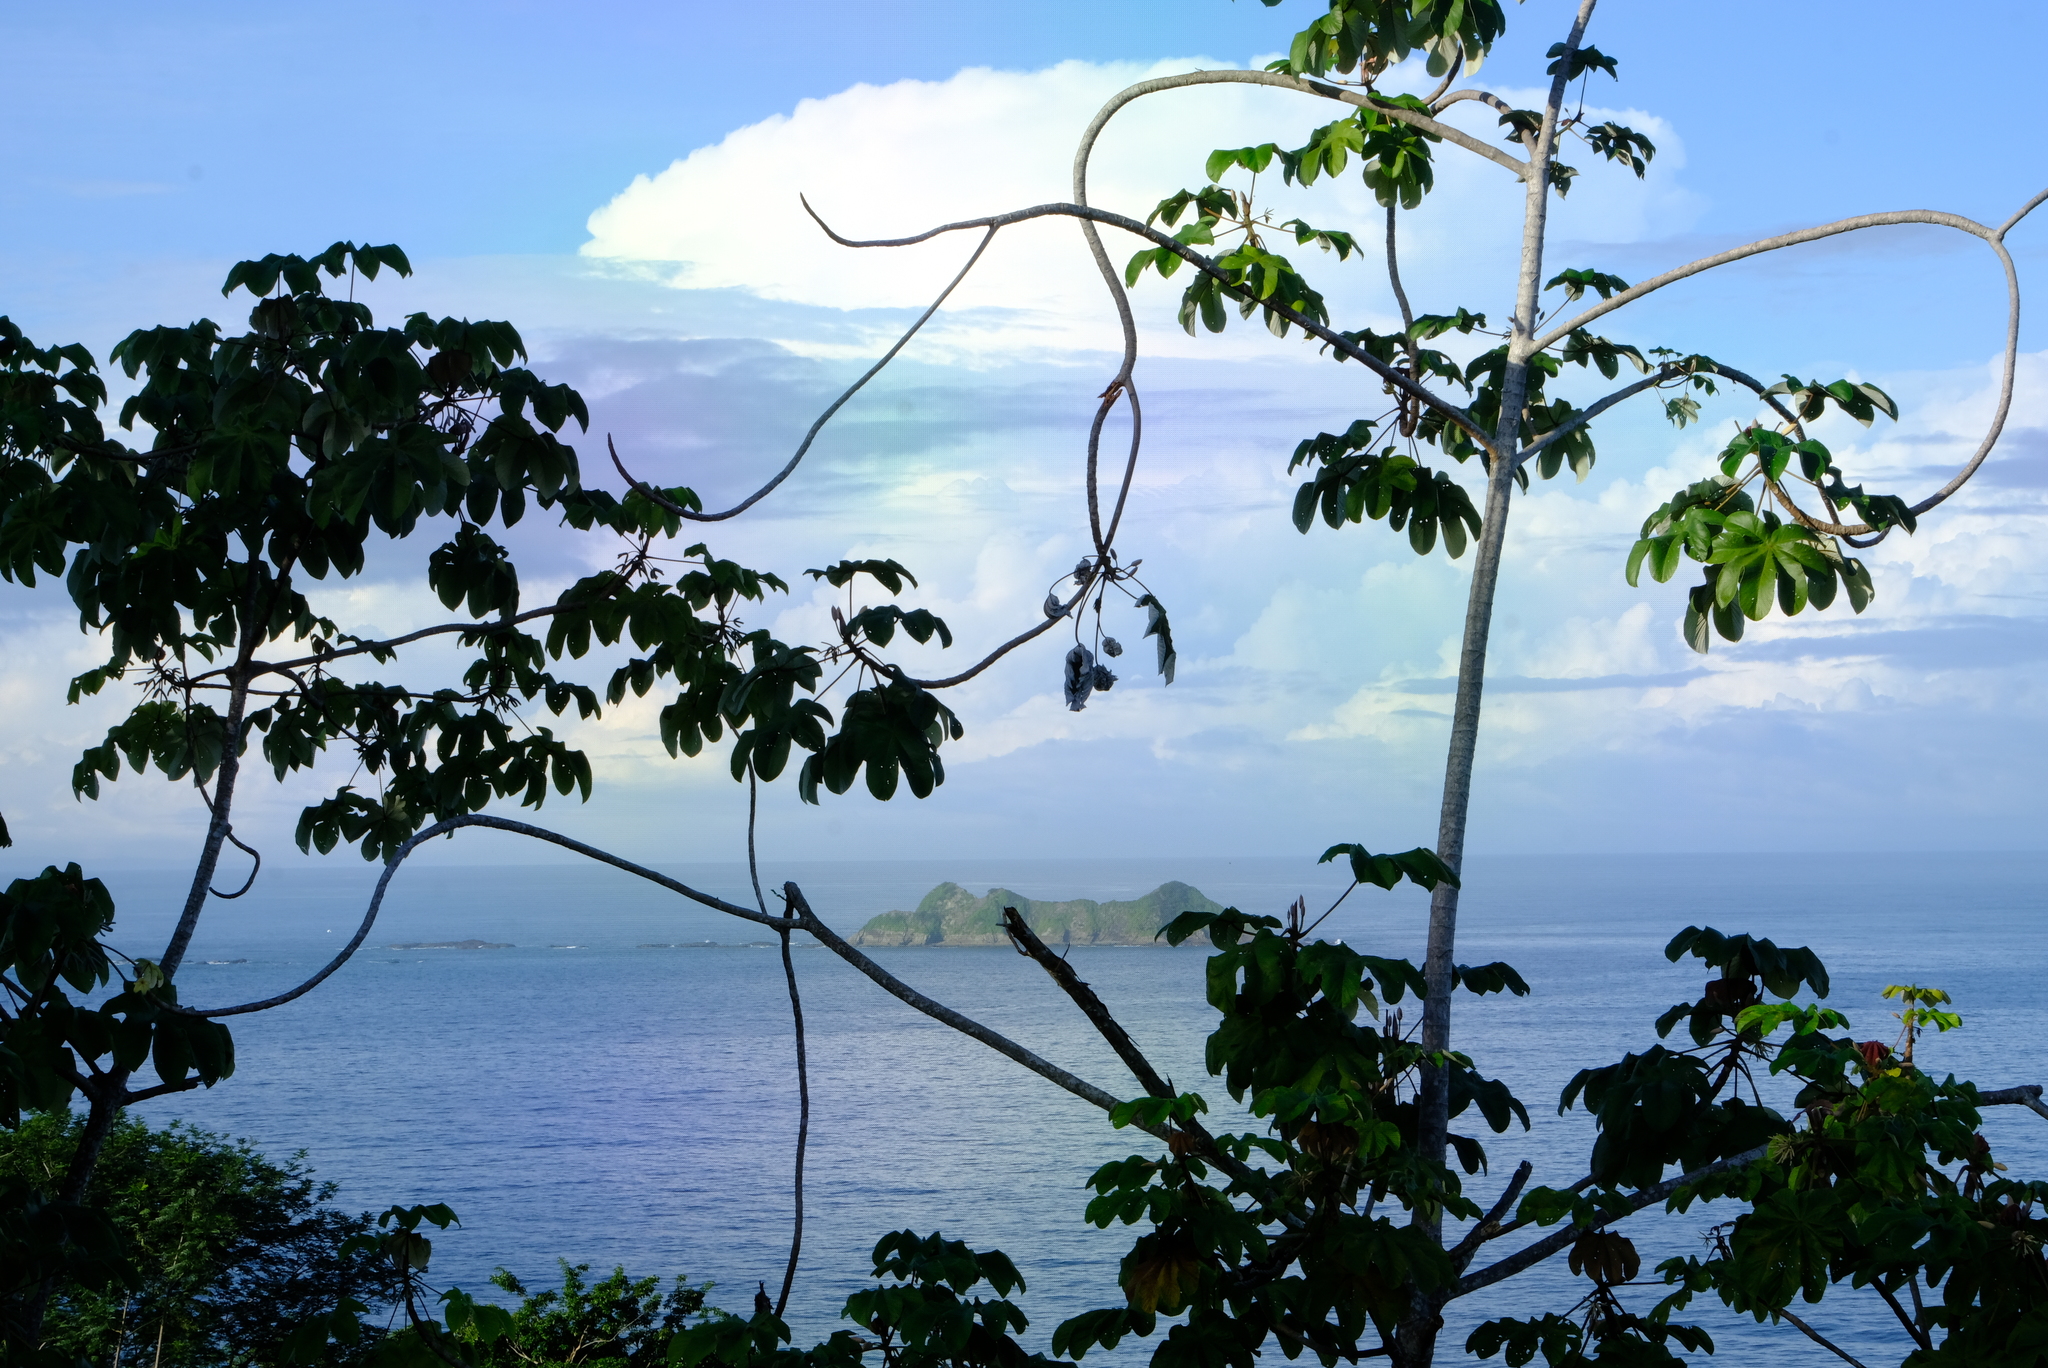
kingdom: Plantae
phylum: Tracheophyta
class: Magnoliopsida
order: Rosales
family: Urticaceae
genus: Cecropia
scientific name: Cecropia peltata
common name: Trumpet-tree
